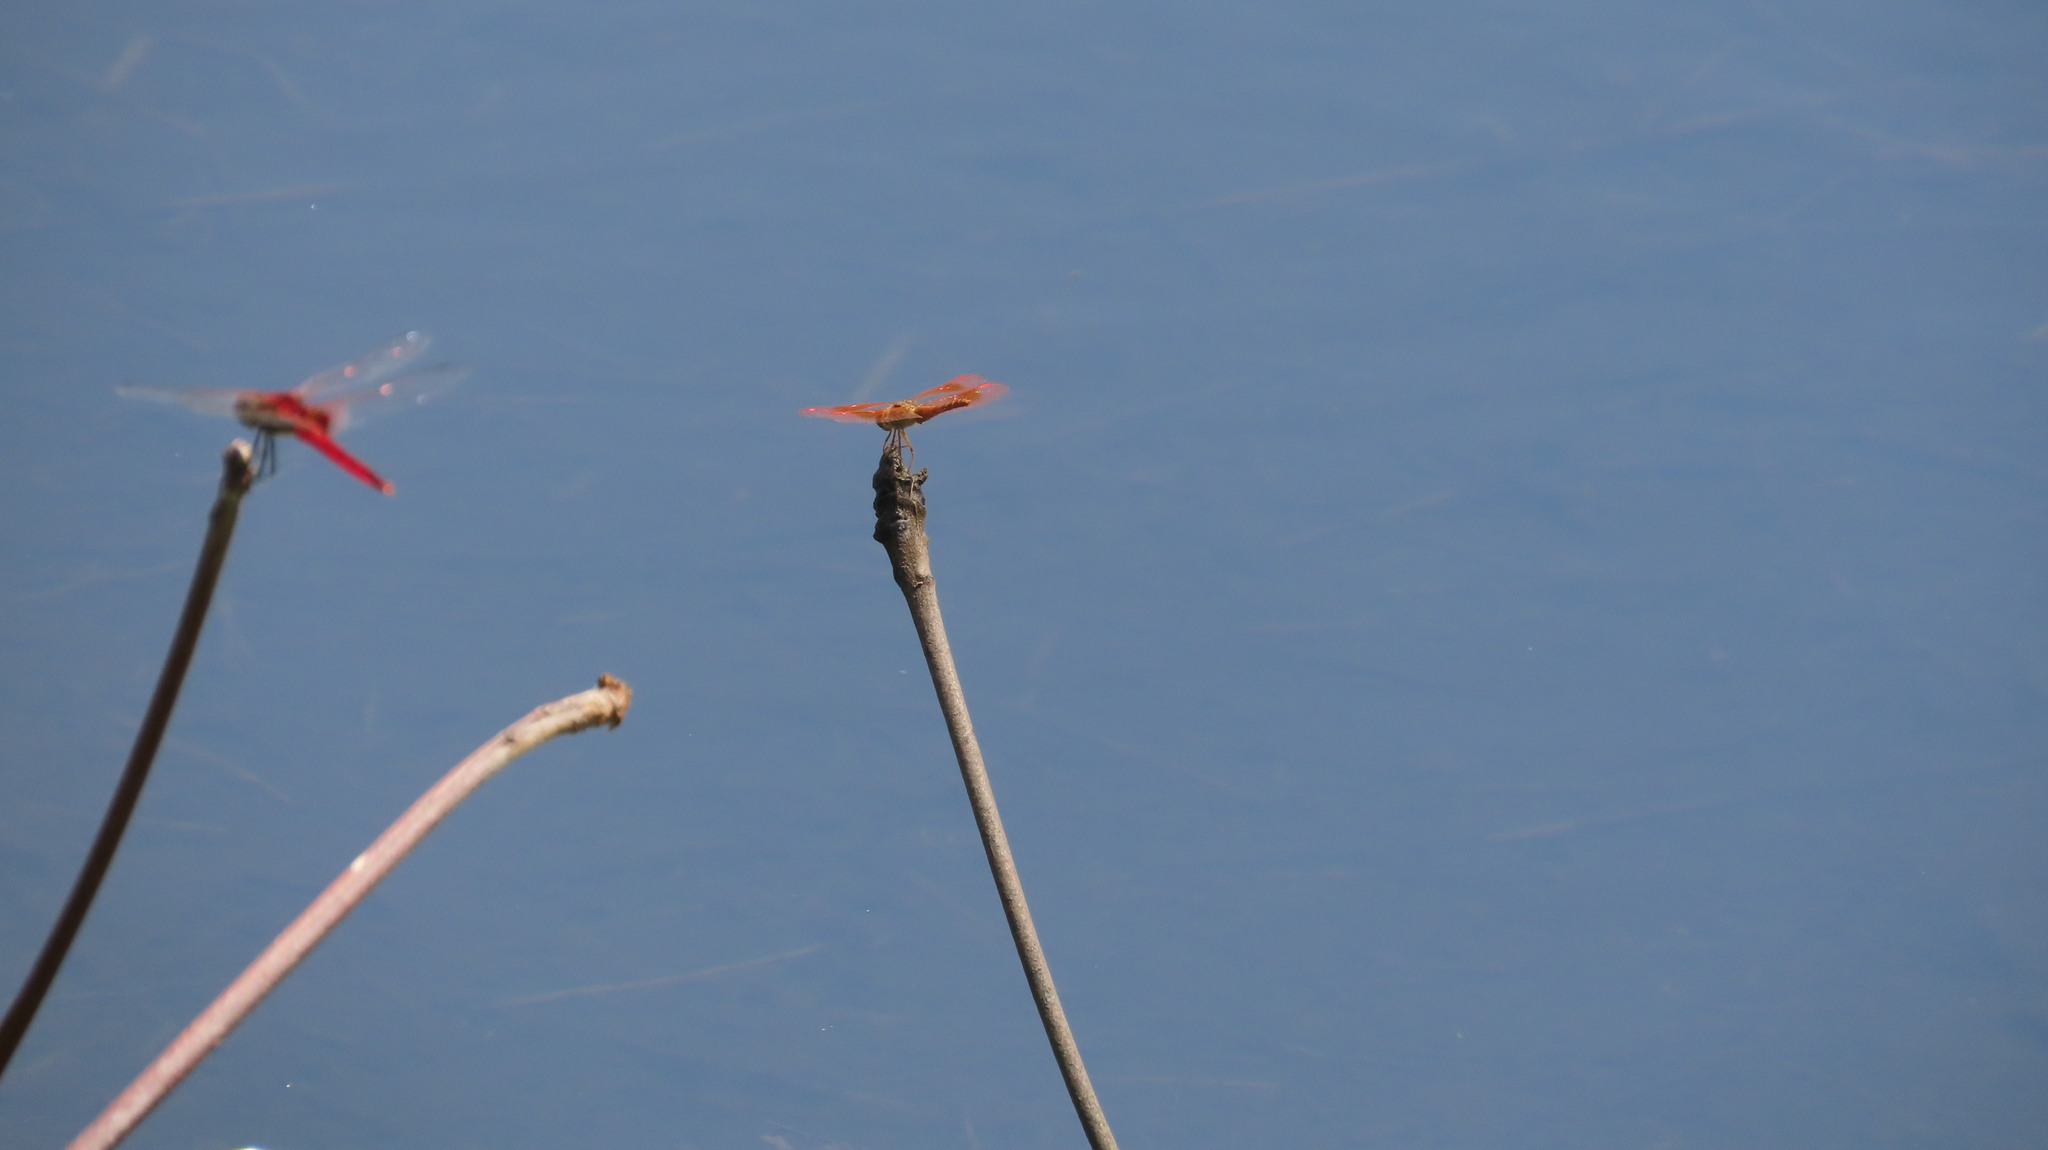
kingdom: Animalia
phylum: Arthropoda
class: Insecta
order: Odonata
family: Libellulidae
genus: Brachythemis
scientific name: Brachythemis contaminata
